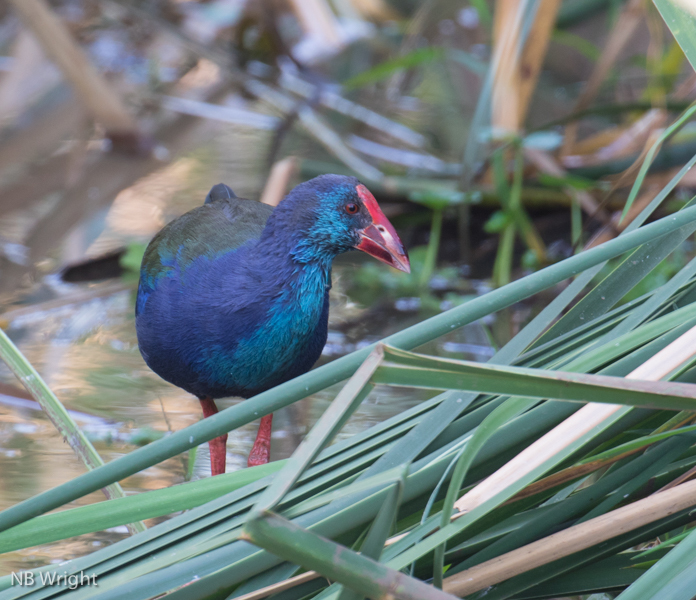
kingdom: Animalia
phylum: Chordata
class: Aves
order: Gruiformes
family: Rallidae
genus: Porphyrio
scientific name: Porphyrio porphyrio
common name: Purple swamphen
